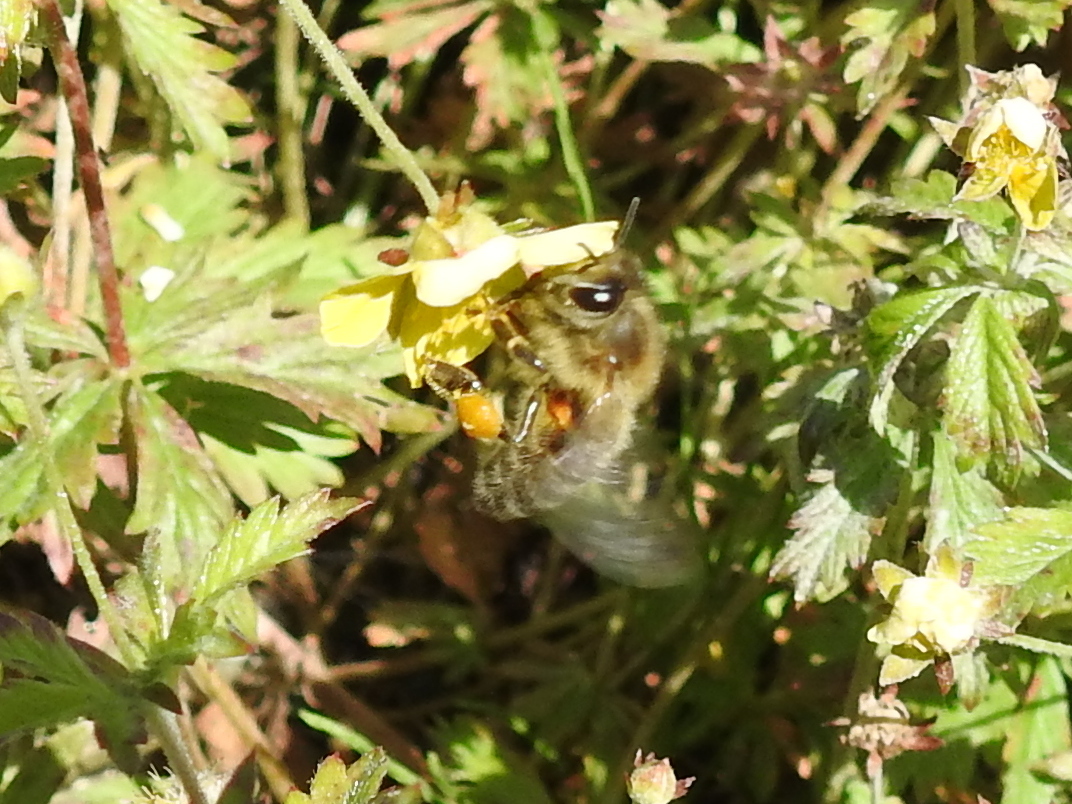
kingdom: Animalia
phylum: Arthropoda
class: Insecta
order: Hymenoptera
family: Apidae
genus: Apis
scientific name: Apis mellifera
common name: Honey bee
